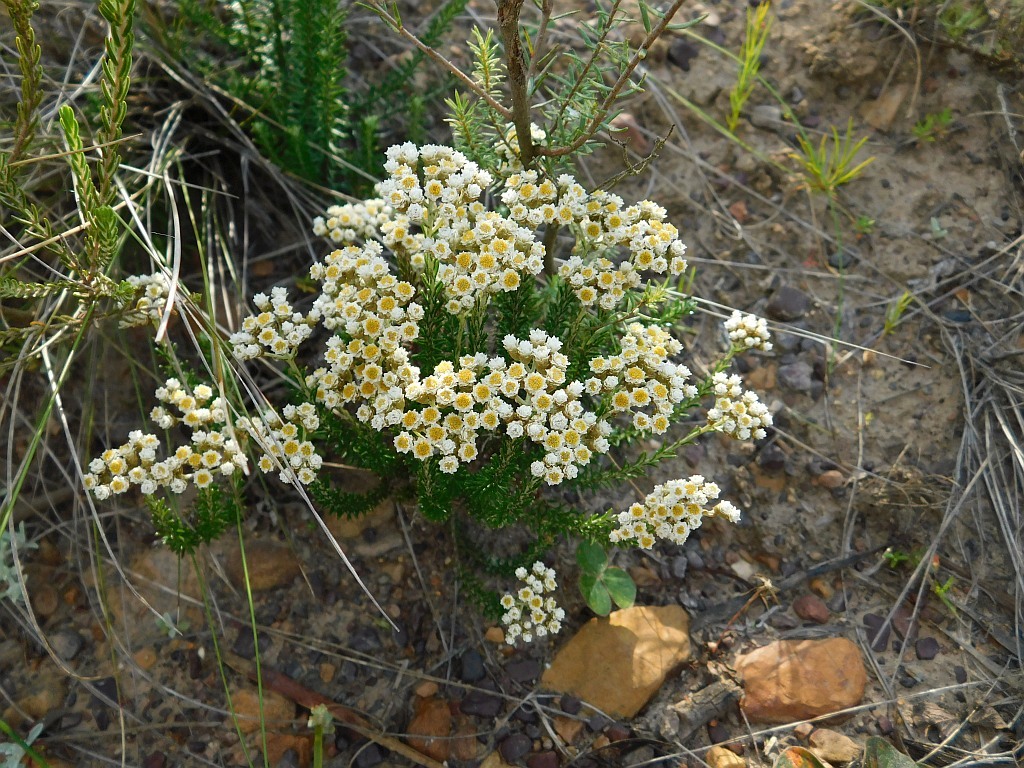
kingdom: Plantae
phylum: Tracheophyta
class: Magnoliopsida
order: Asterales
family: Asteraceae
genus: Helichrysum
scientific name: Helichrysum teretifolium
